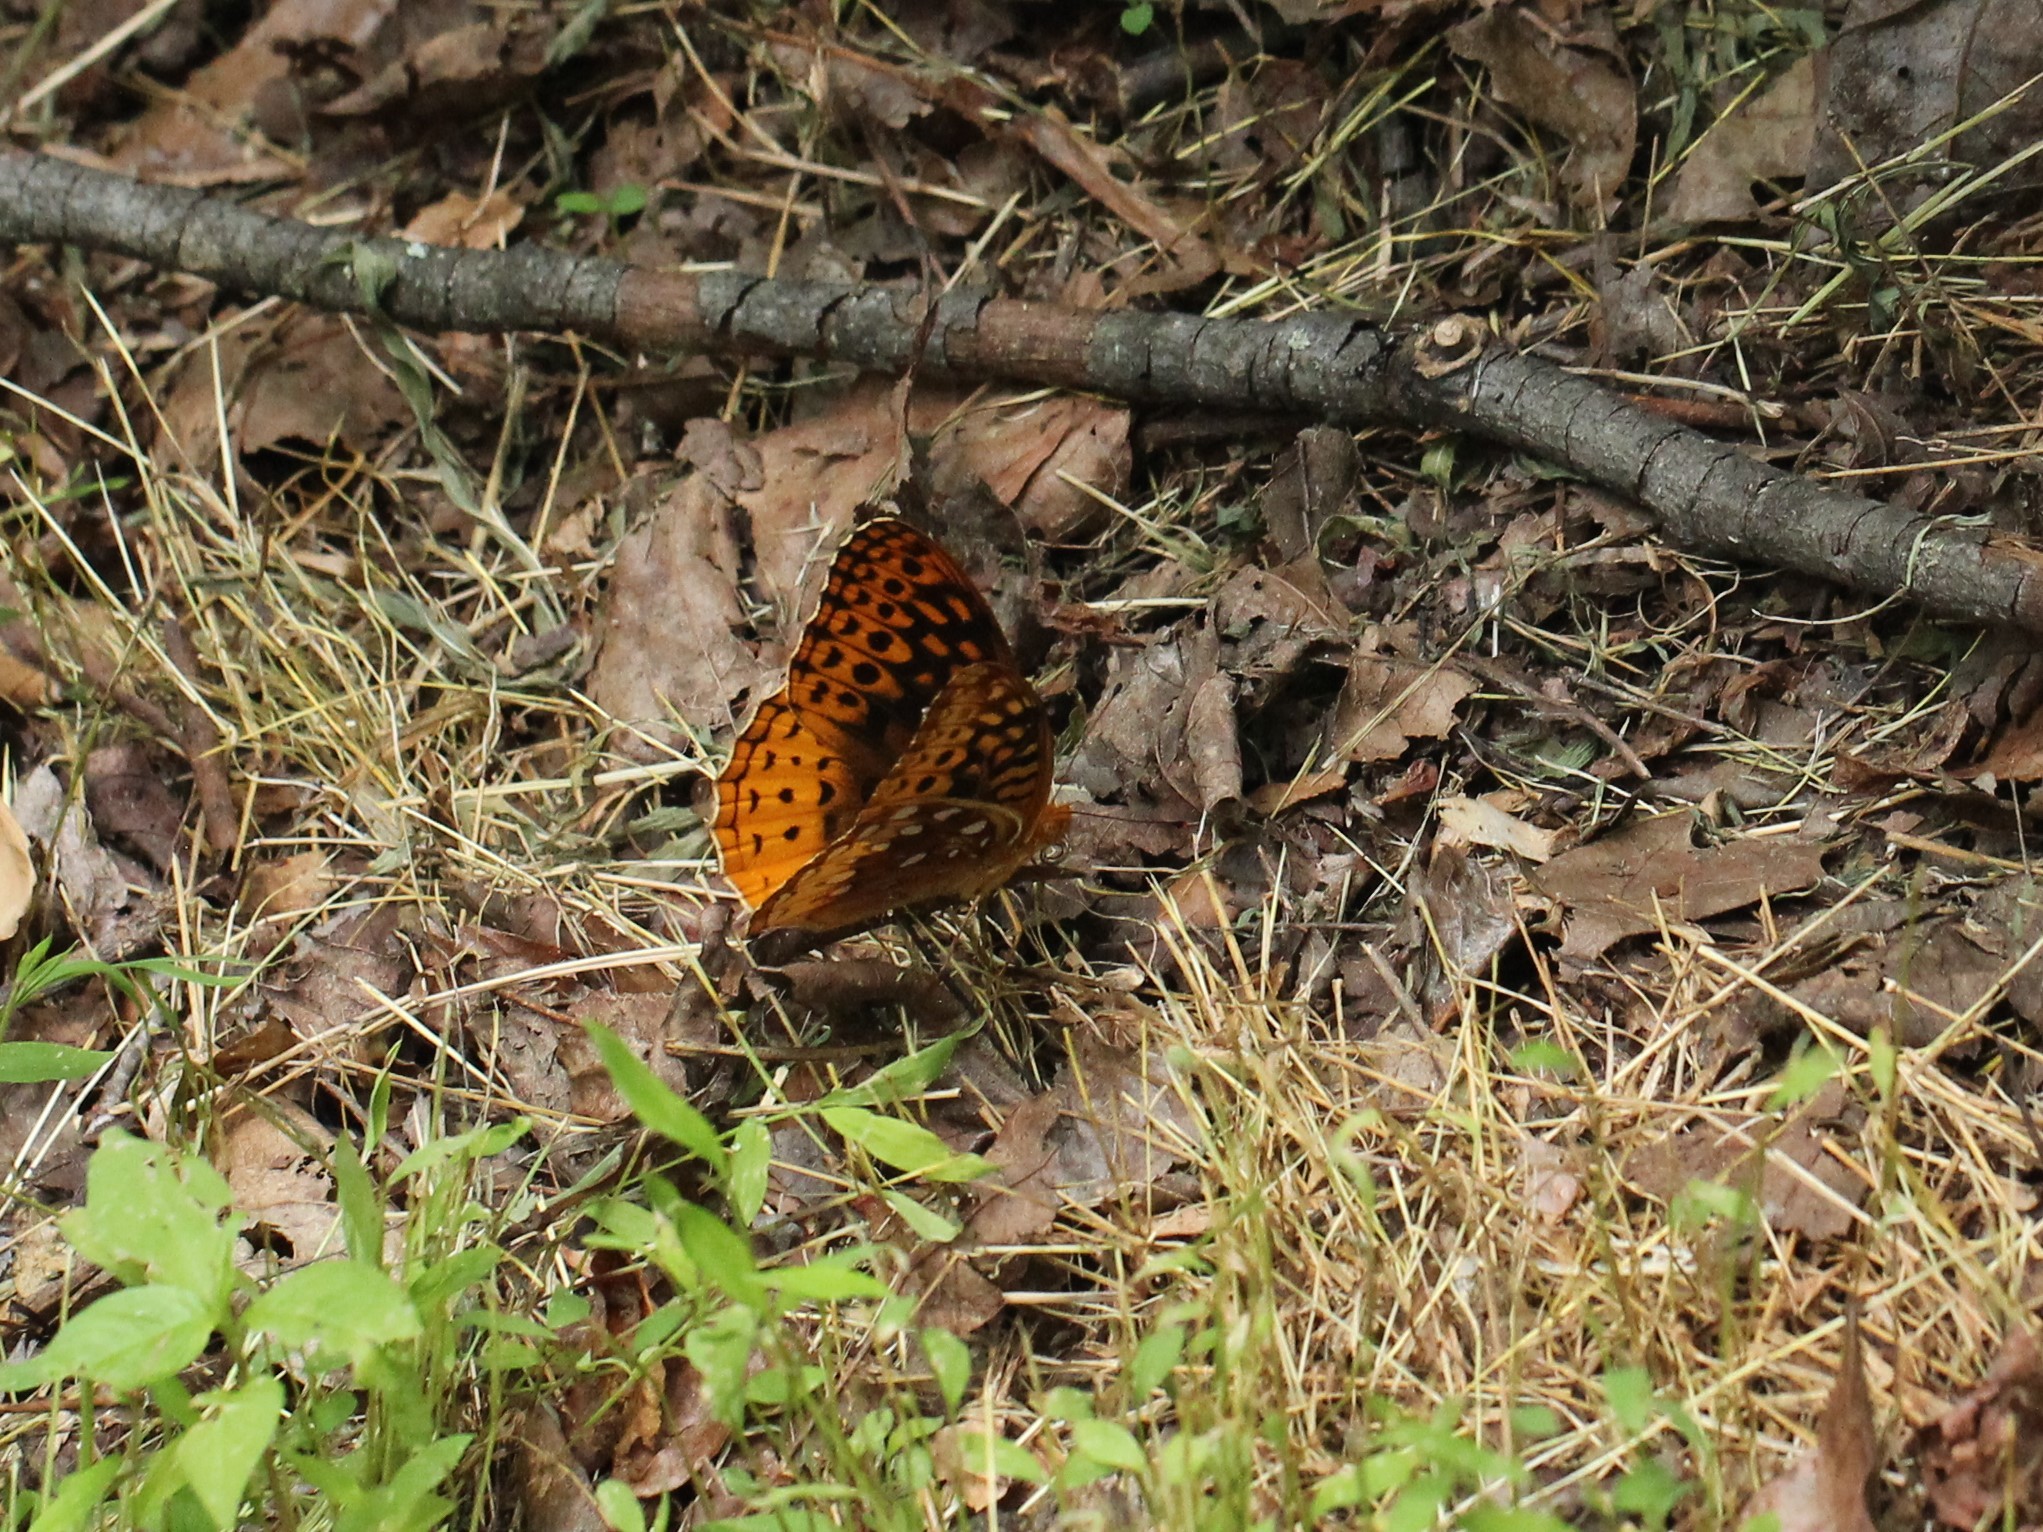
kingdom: Animalia
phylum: Arthropoda
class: Insecta
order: Lepidoptera
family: Nymphalidae
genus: Speyeria
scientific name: Speyeria cybele
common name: Great spangled fritillary
